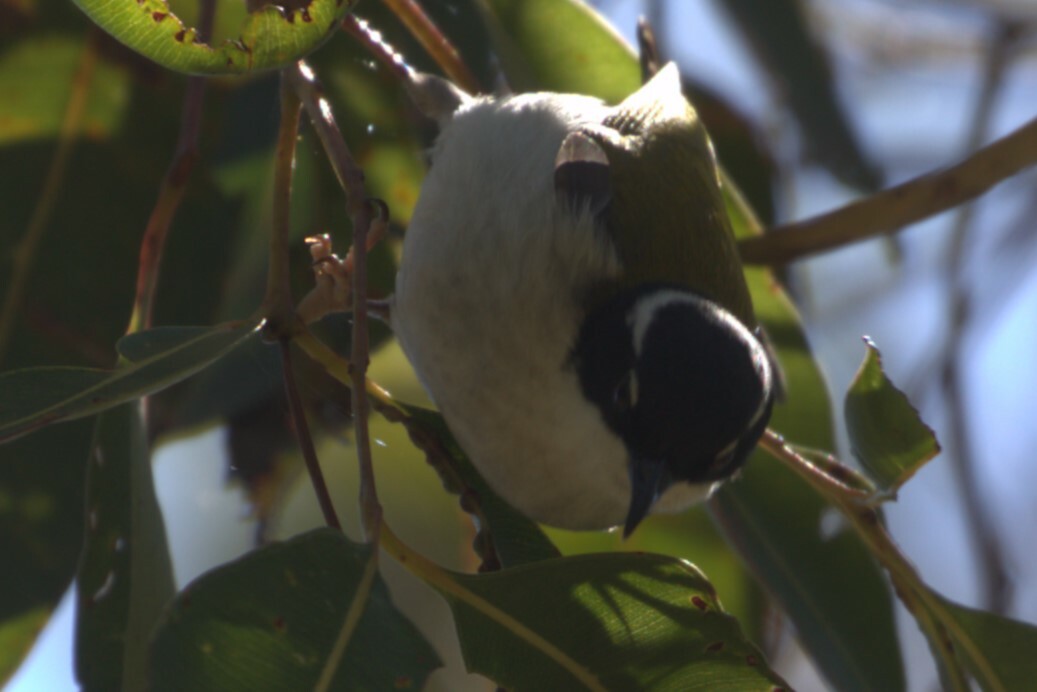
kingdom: Animalia
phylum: Chordata
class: Aves
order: Passeriformes
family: Meliphagidae
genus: Melithreptus
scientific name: Melithreptus albogularis
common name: White-throated honeyeater
